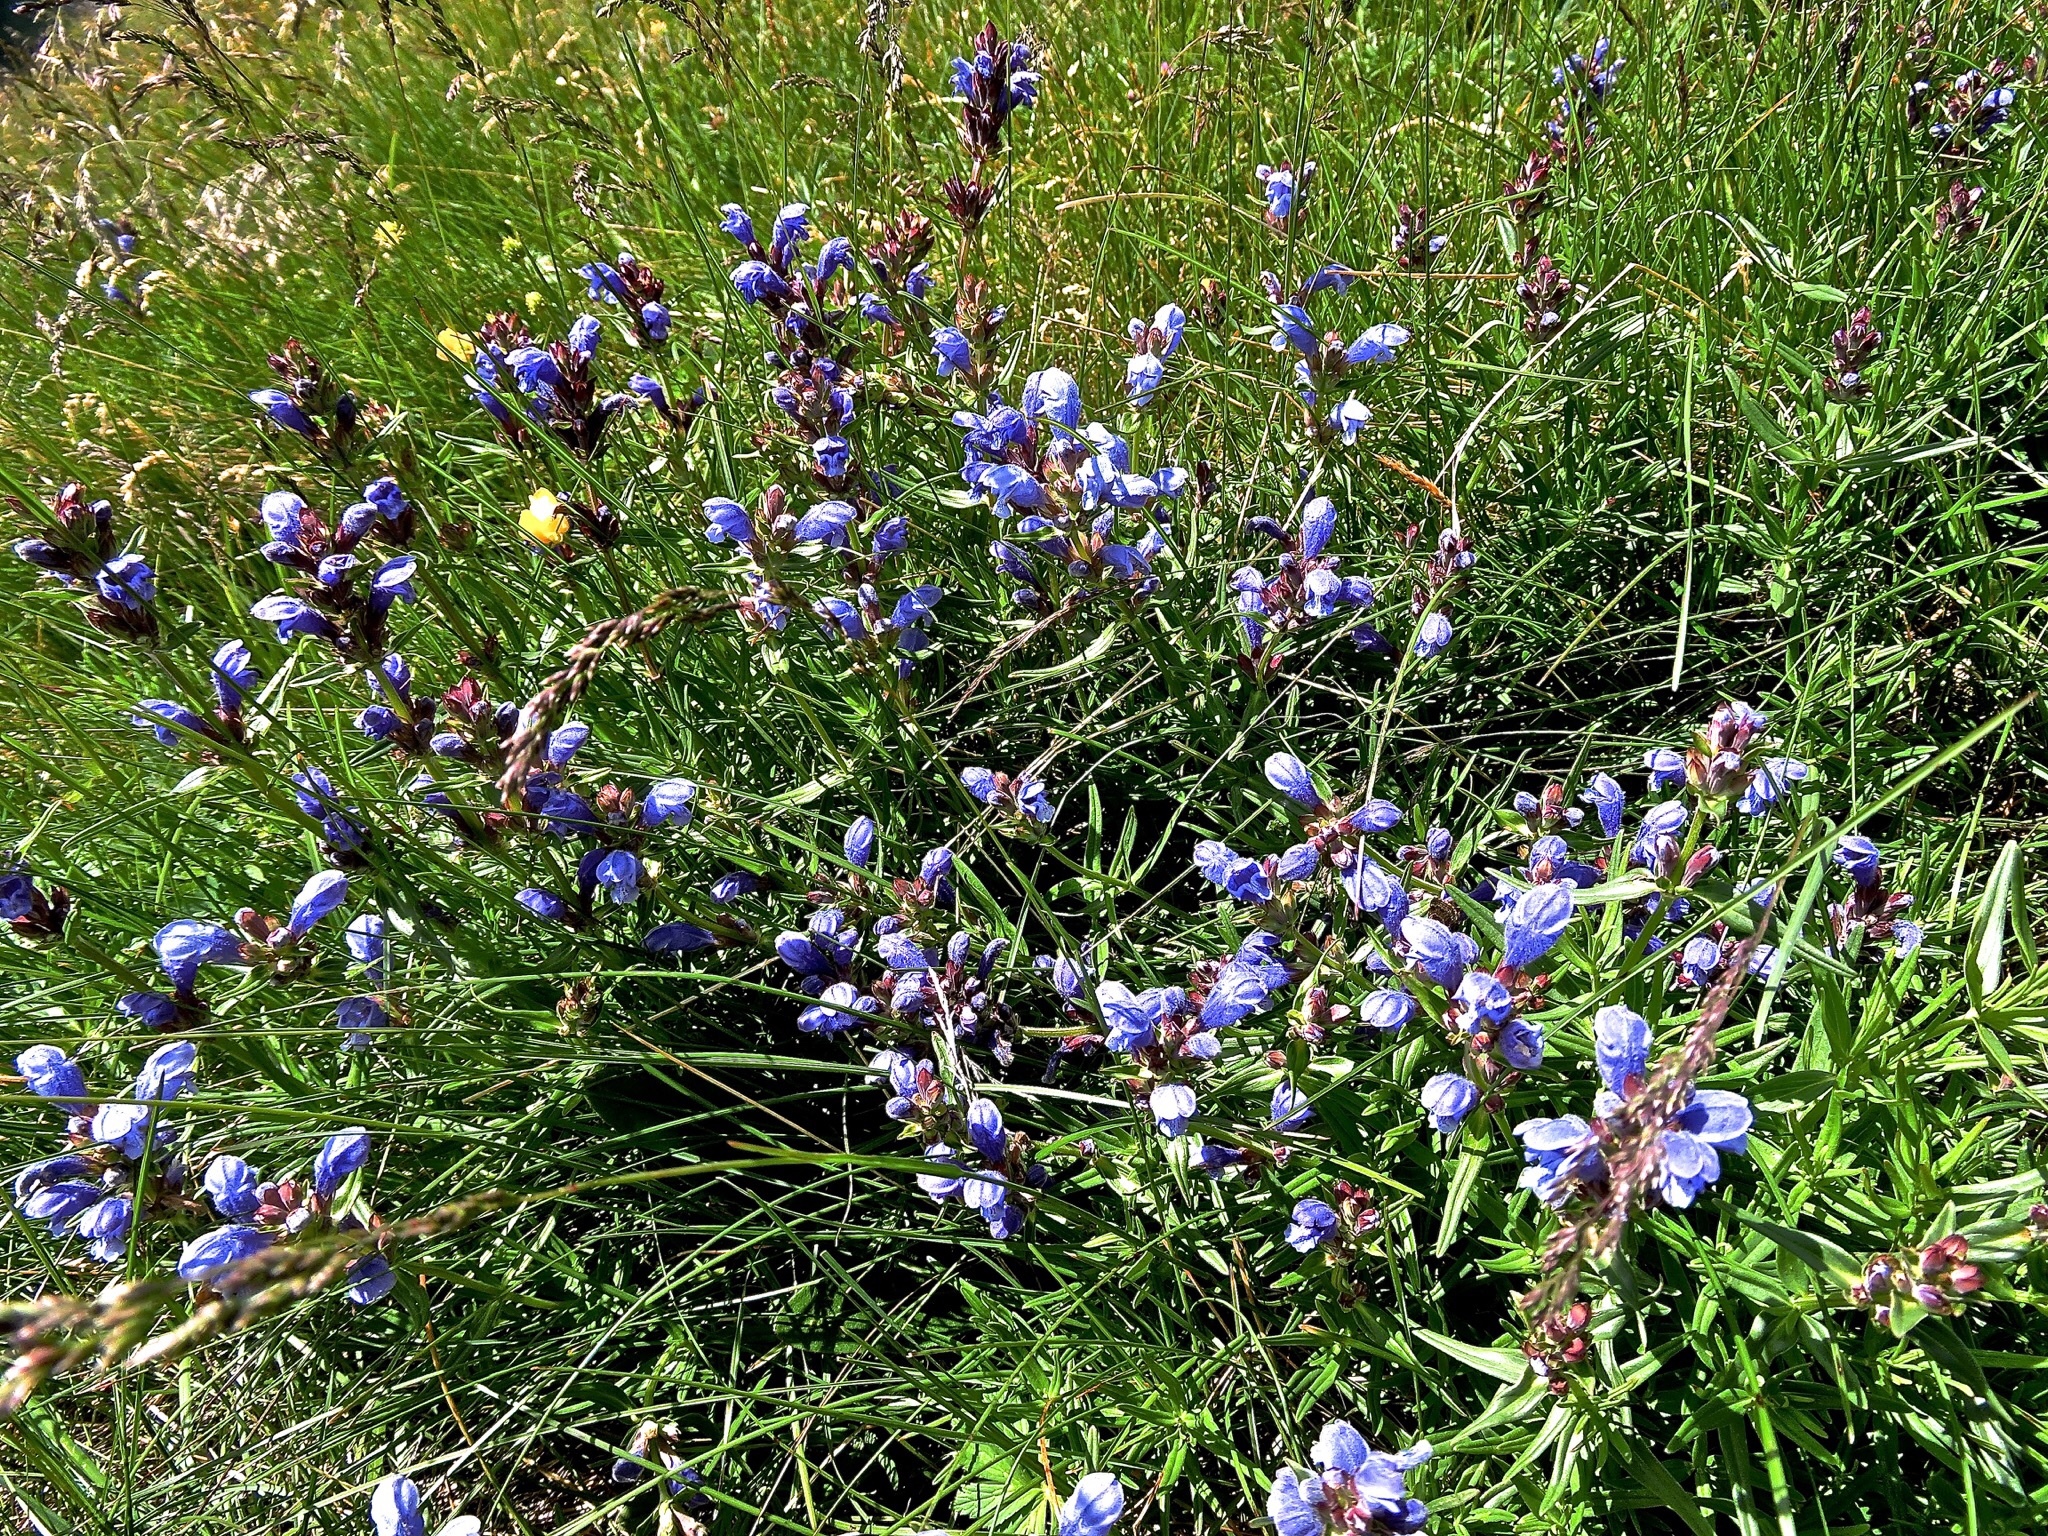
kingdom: Plantae
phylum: Tracheophyta
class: Magnoliopsida
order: Lamiales
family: Lamiaceae
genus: Dracocephalum
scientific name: Dracocephalum ruyschiana
